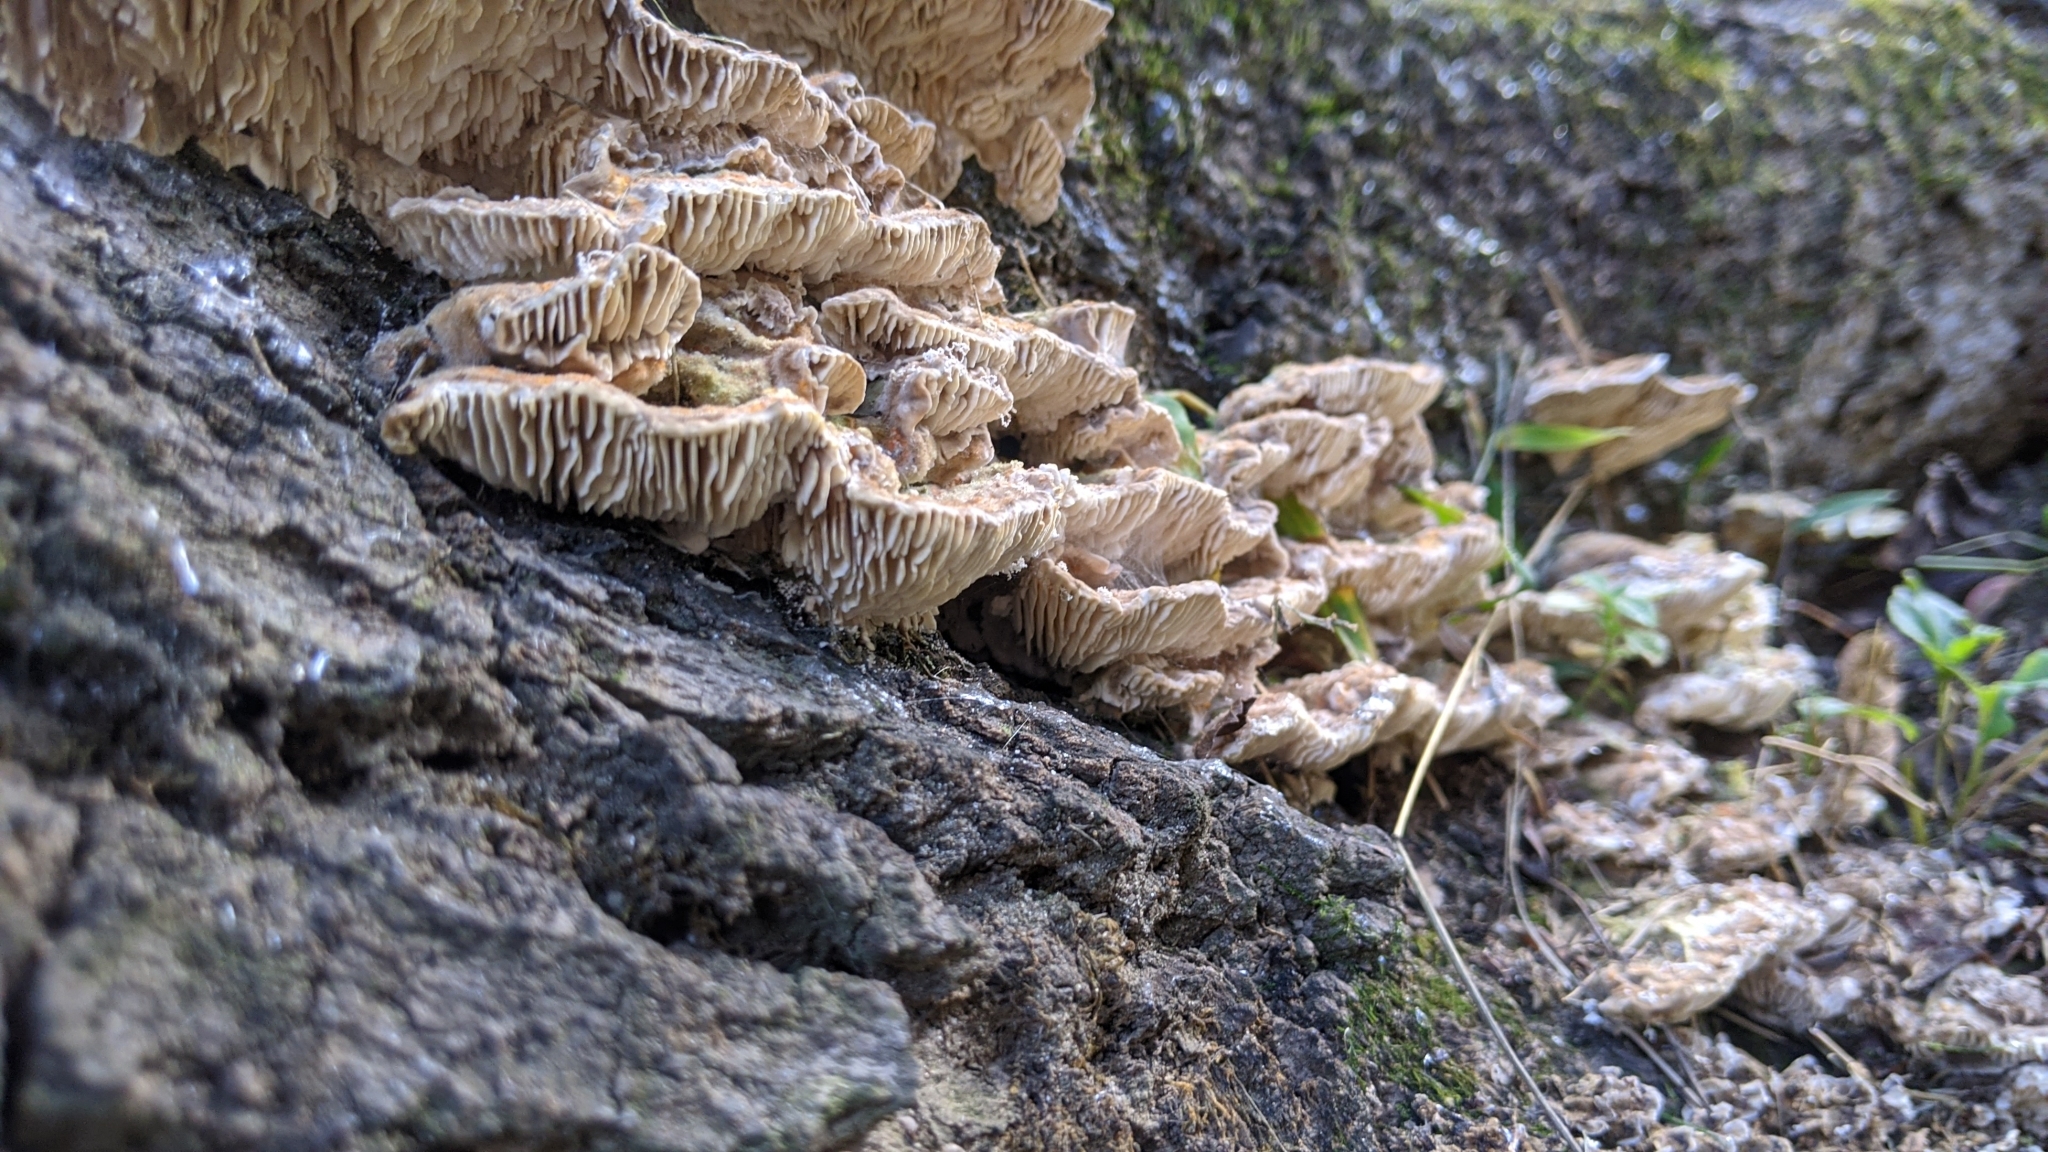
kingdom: Fungi
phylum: Basidiomycota
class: Agaricomycetes
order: Polyporales
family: Polyporaceae
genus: Lenzites
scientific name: Lenzites betulinus
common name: Birch mazegill
